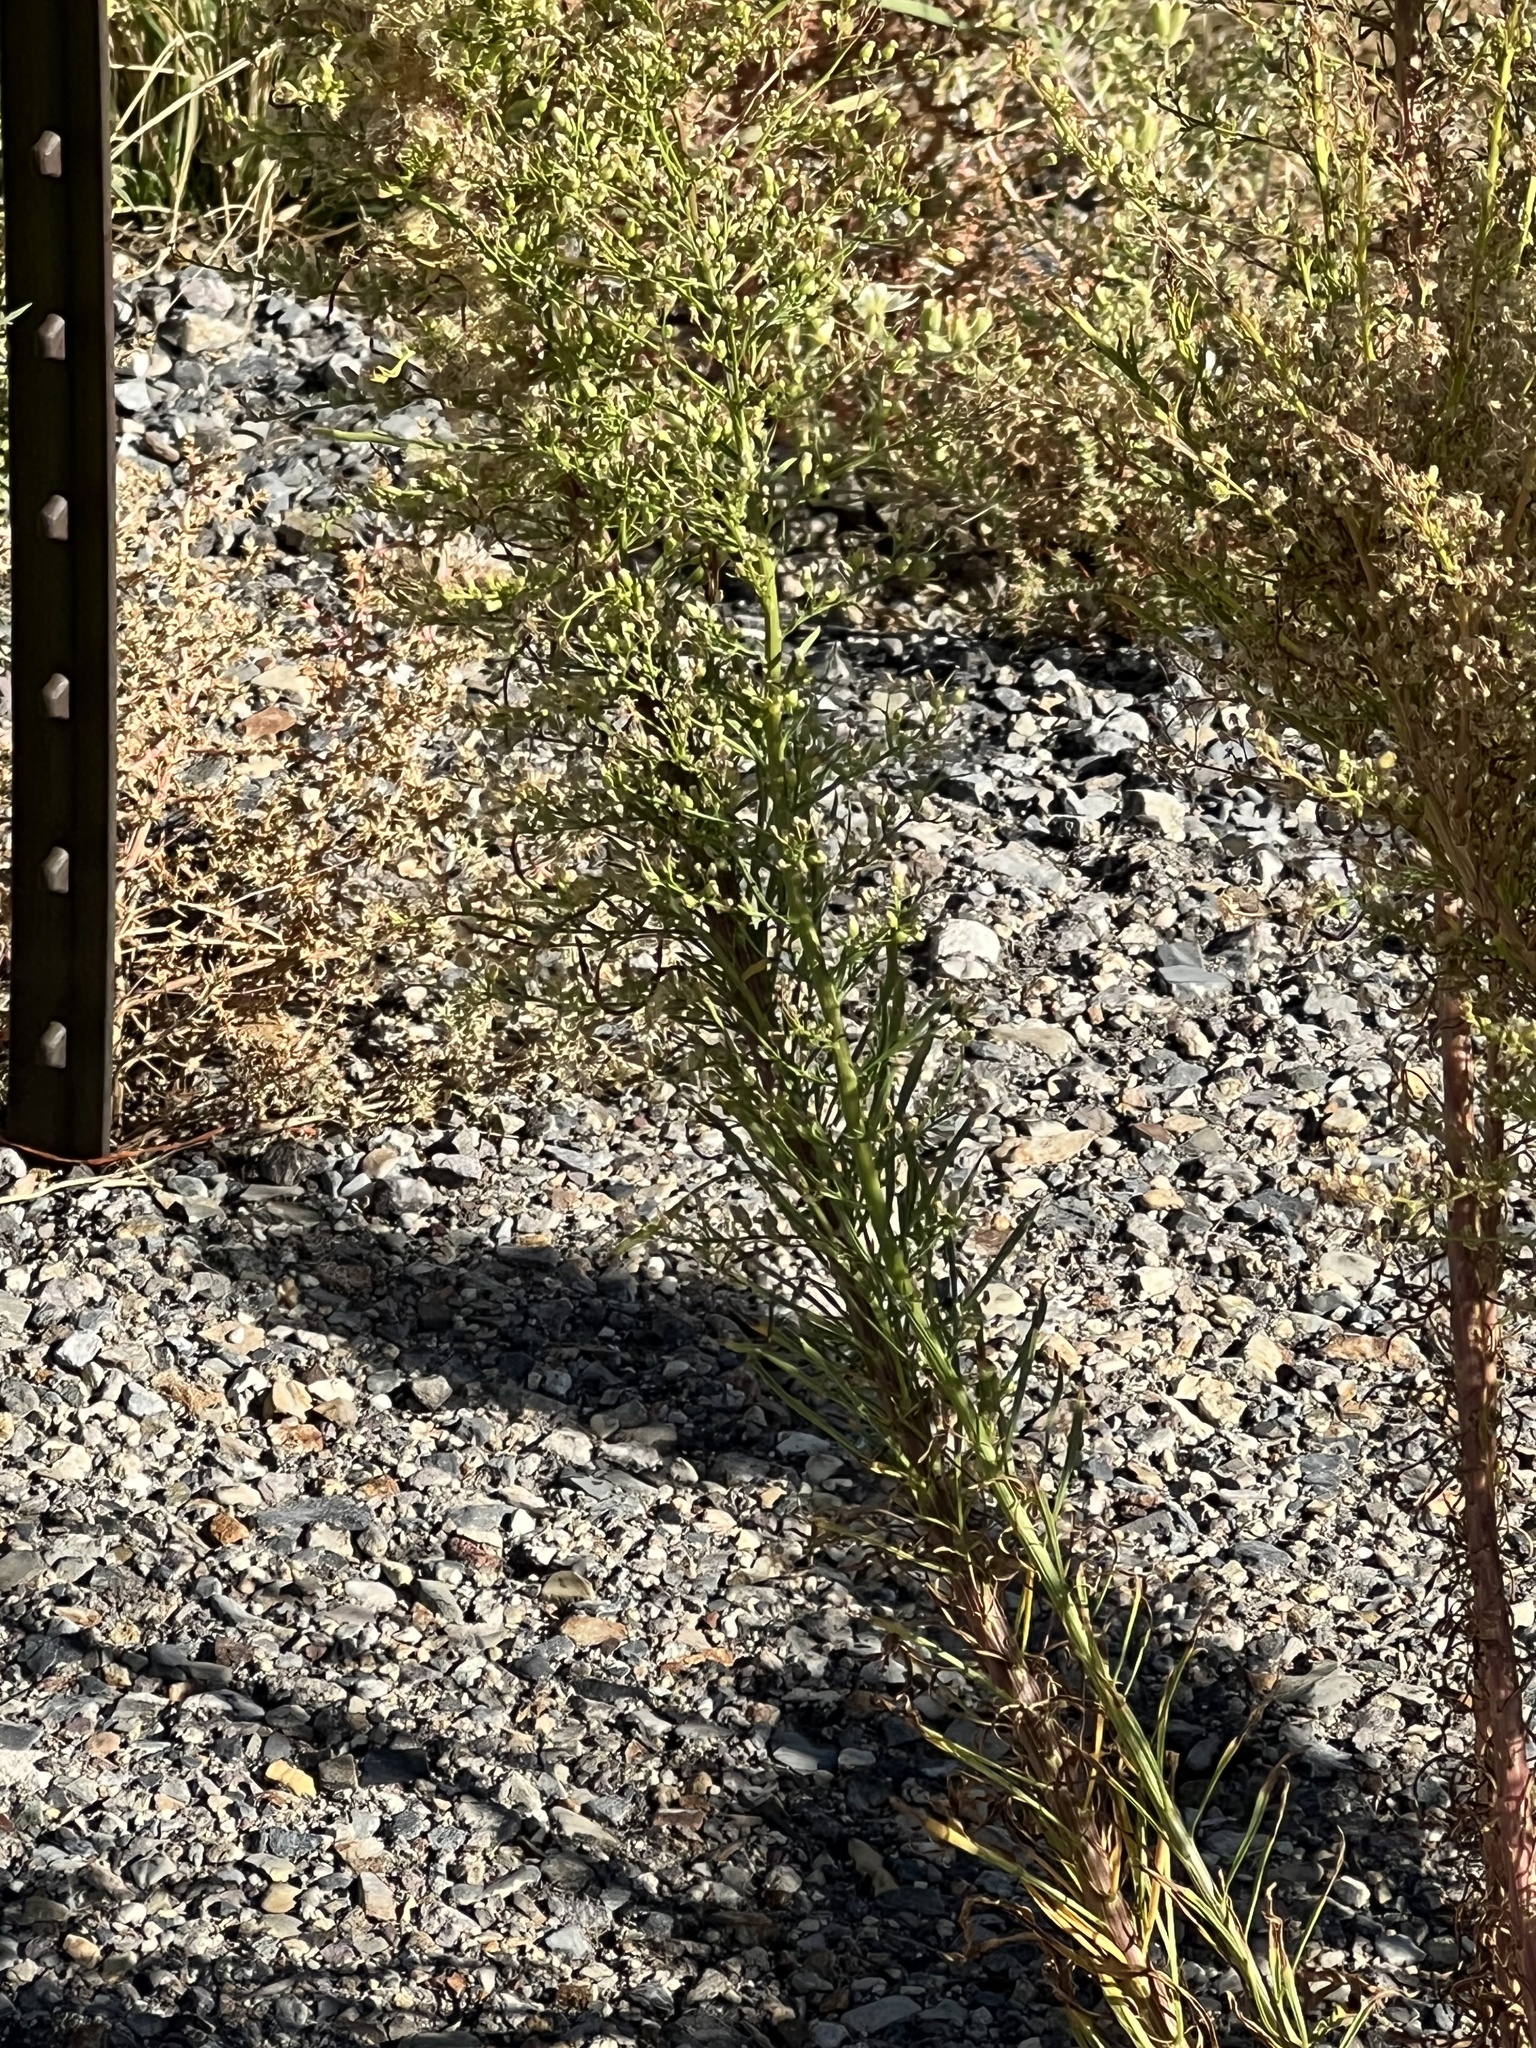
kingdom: Plantae
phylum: Tracheophyta
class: Magnoliopsida
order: Asterales
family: Asteraceae
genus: Erigeron
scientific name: Erigeron canadensis
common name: Canadian fleabane
